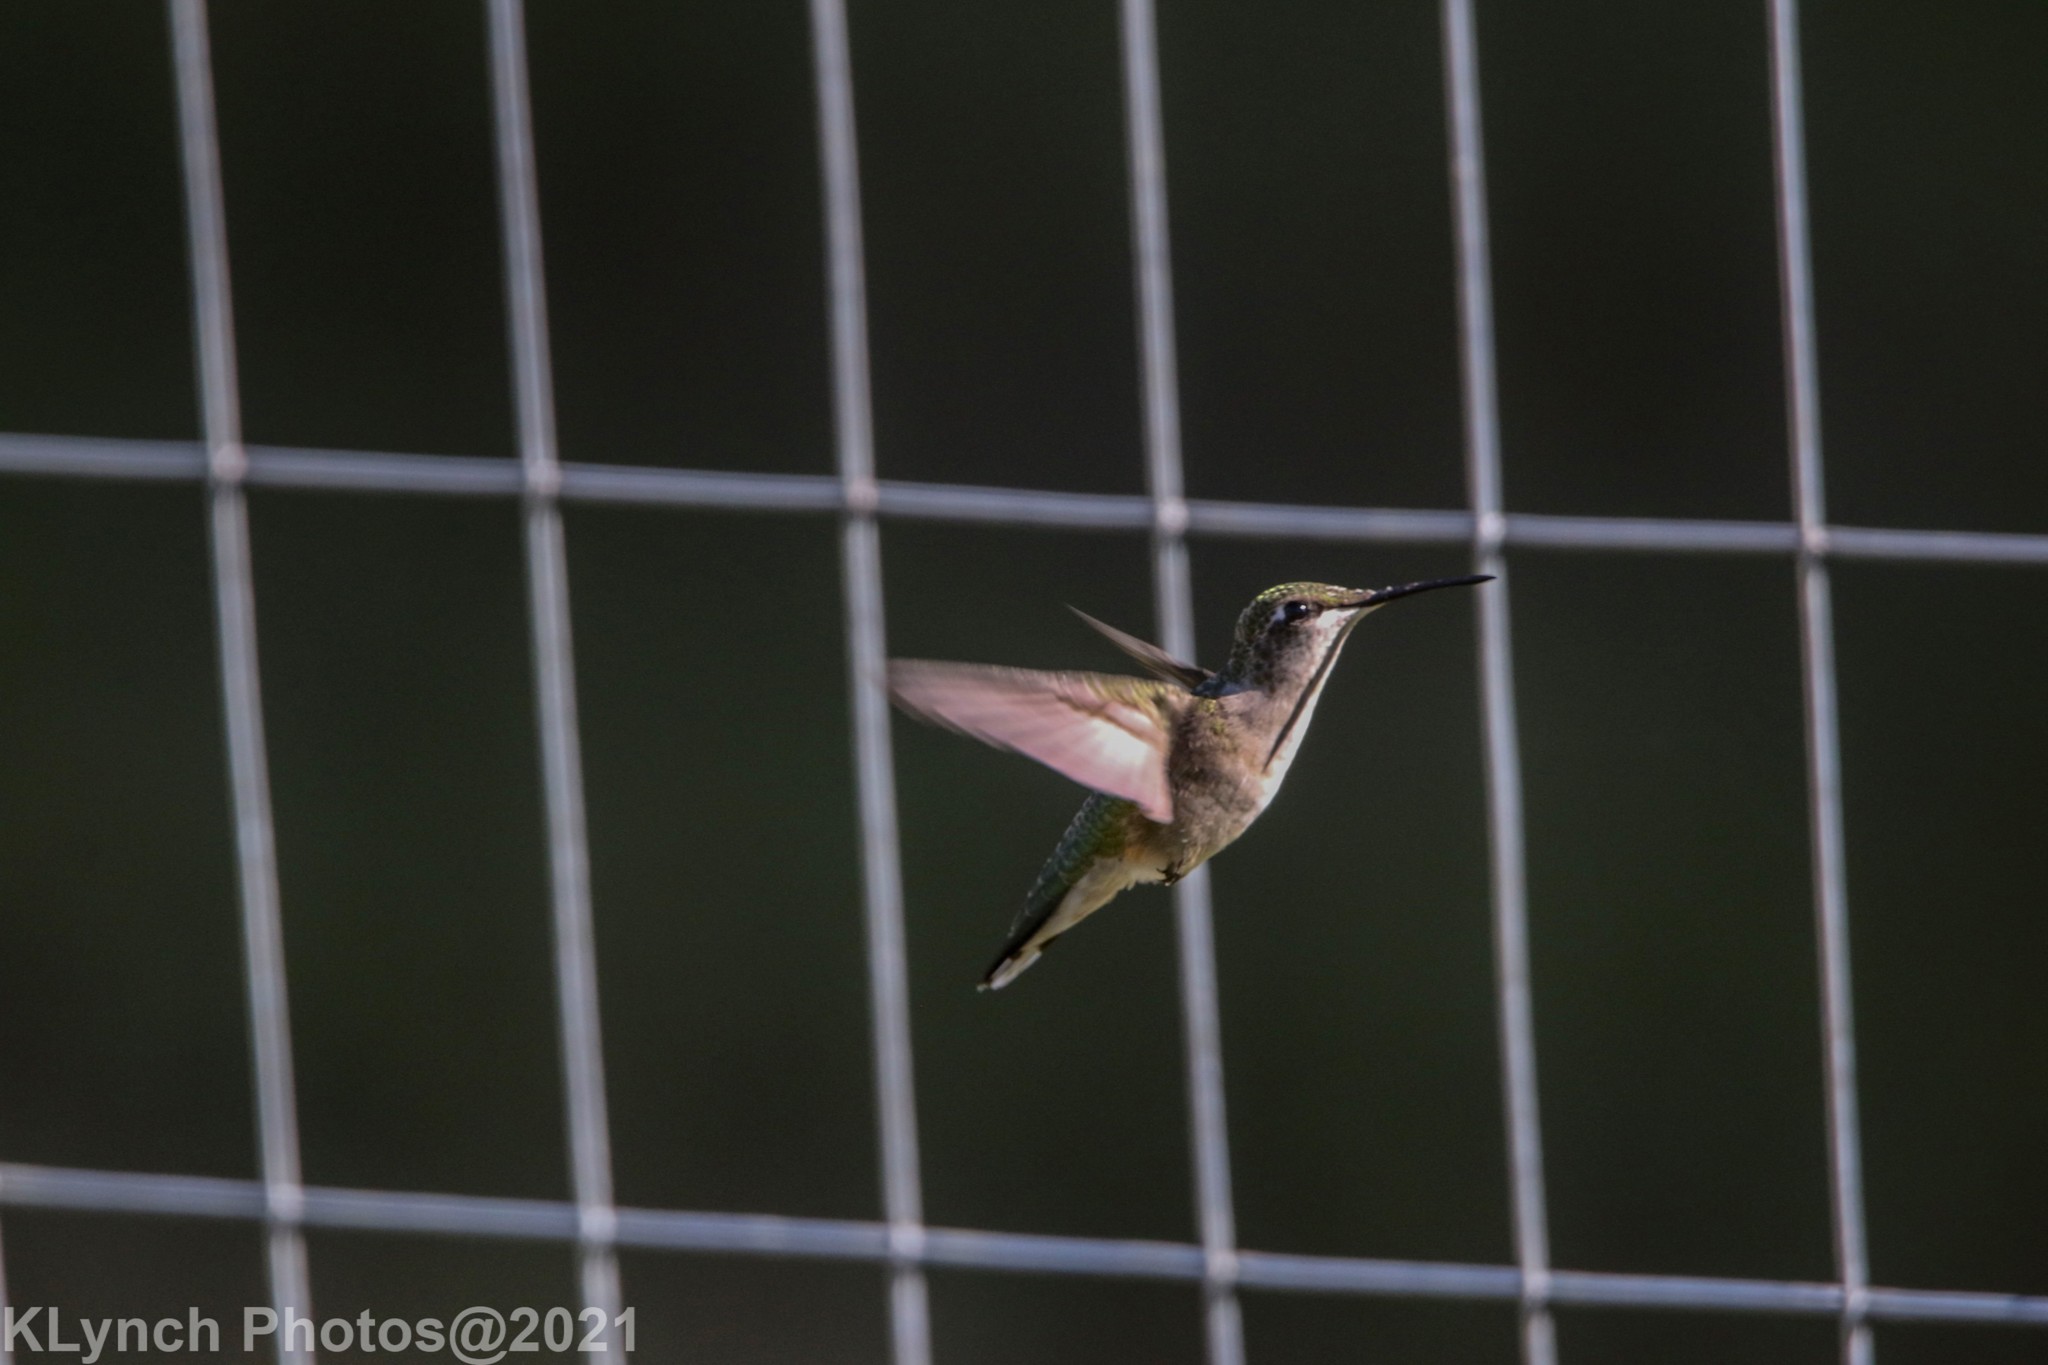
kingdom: Animalia
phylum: Chordata
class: Aves
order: Apodiformes
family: Trochilidae
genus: Archilochus
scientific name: Archilochus colubris
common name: Ruby-throated hummingbird
